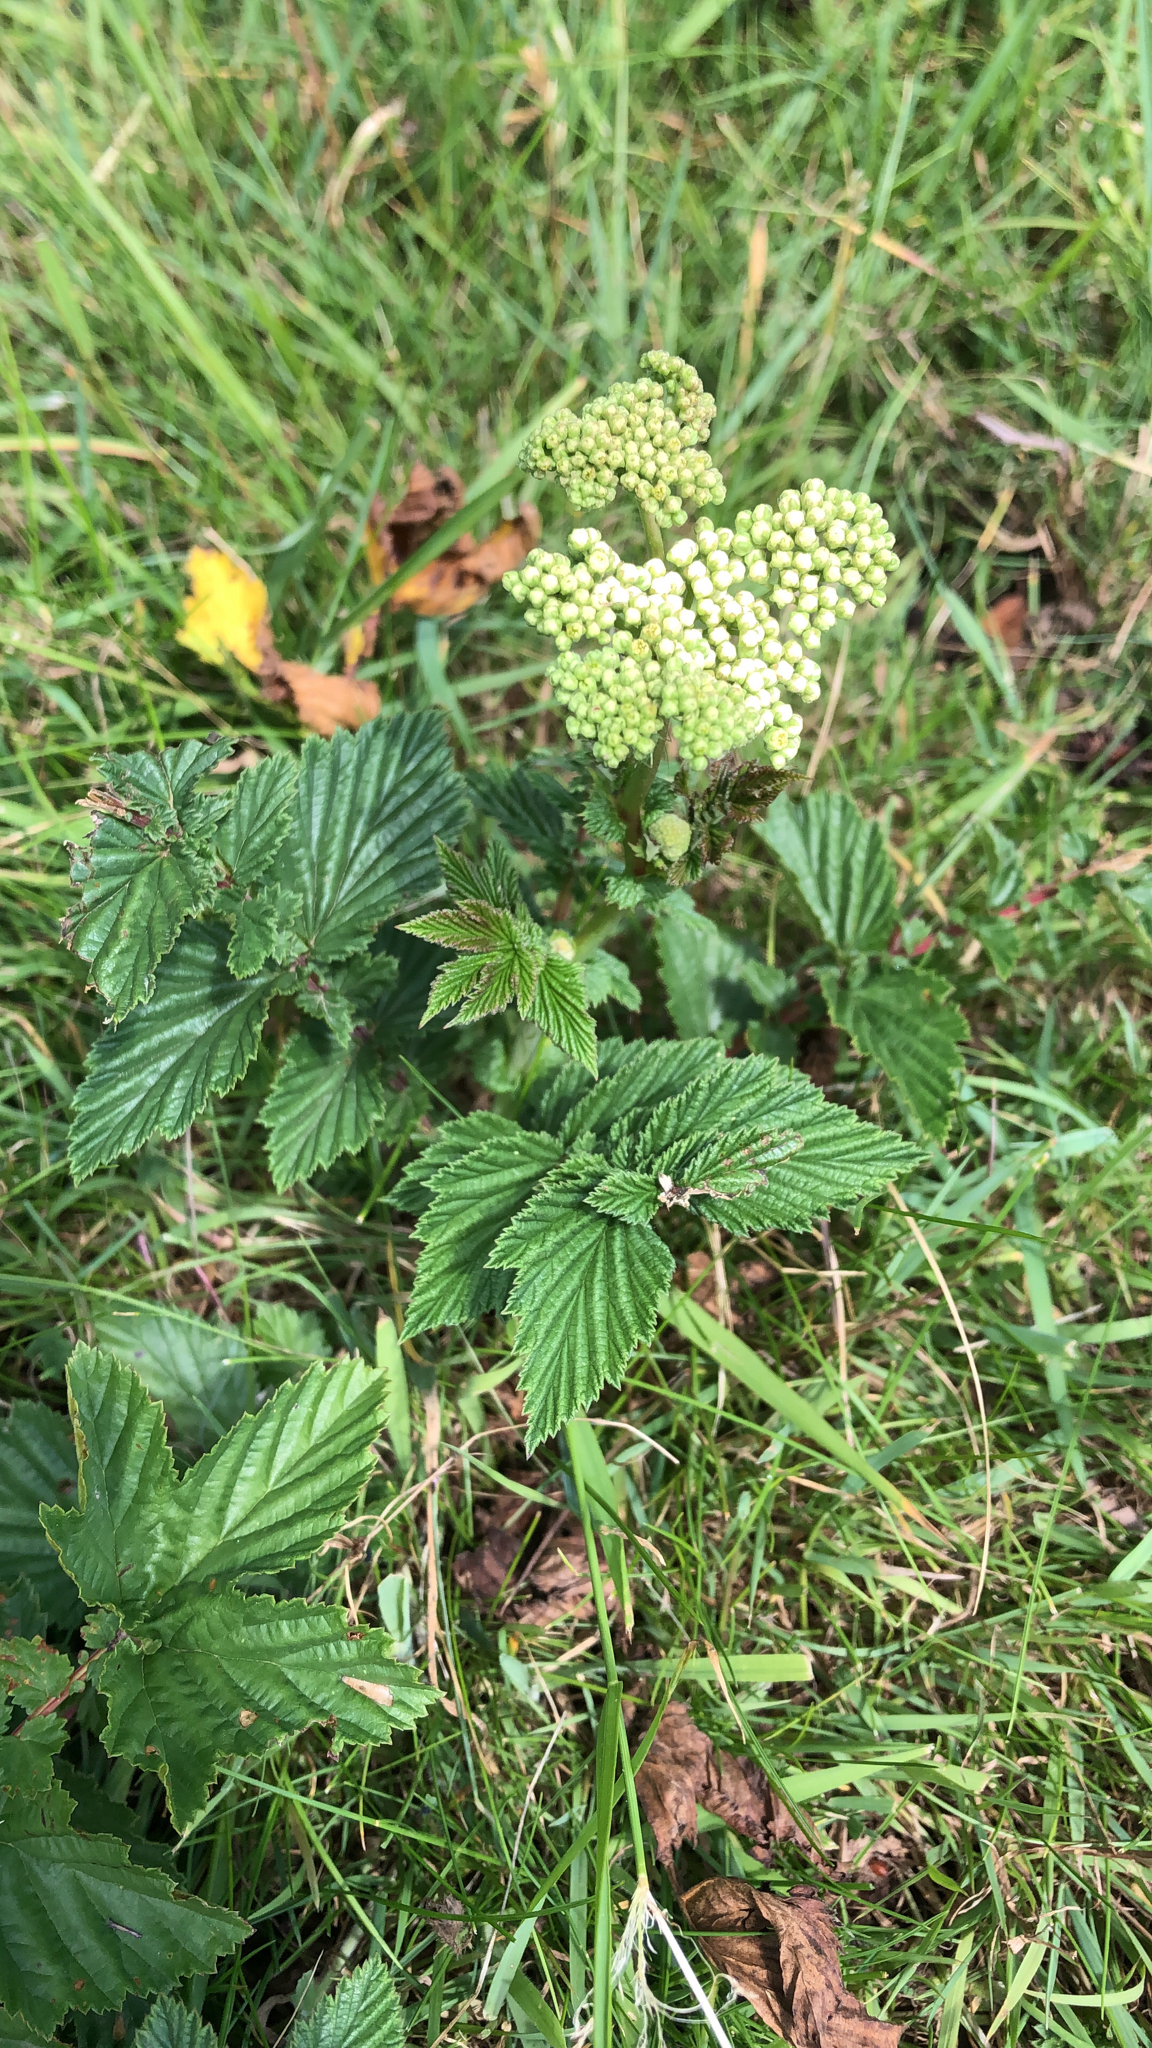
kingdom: Plantae
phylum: Tracheophyta
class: Magnoliopsida
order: Rosales
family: Rosaceae
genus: Filipendula
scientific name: Filipendula ulmaria
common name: Meadowsweet
